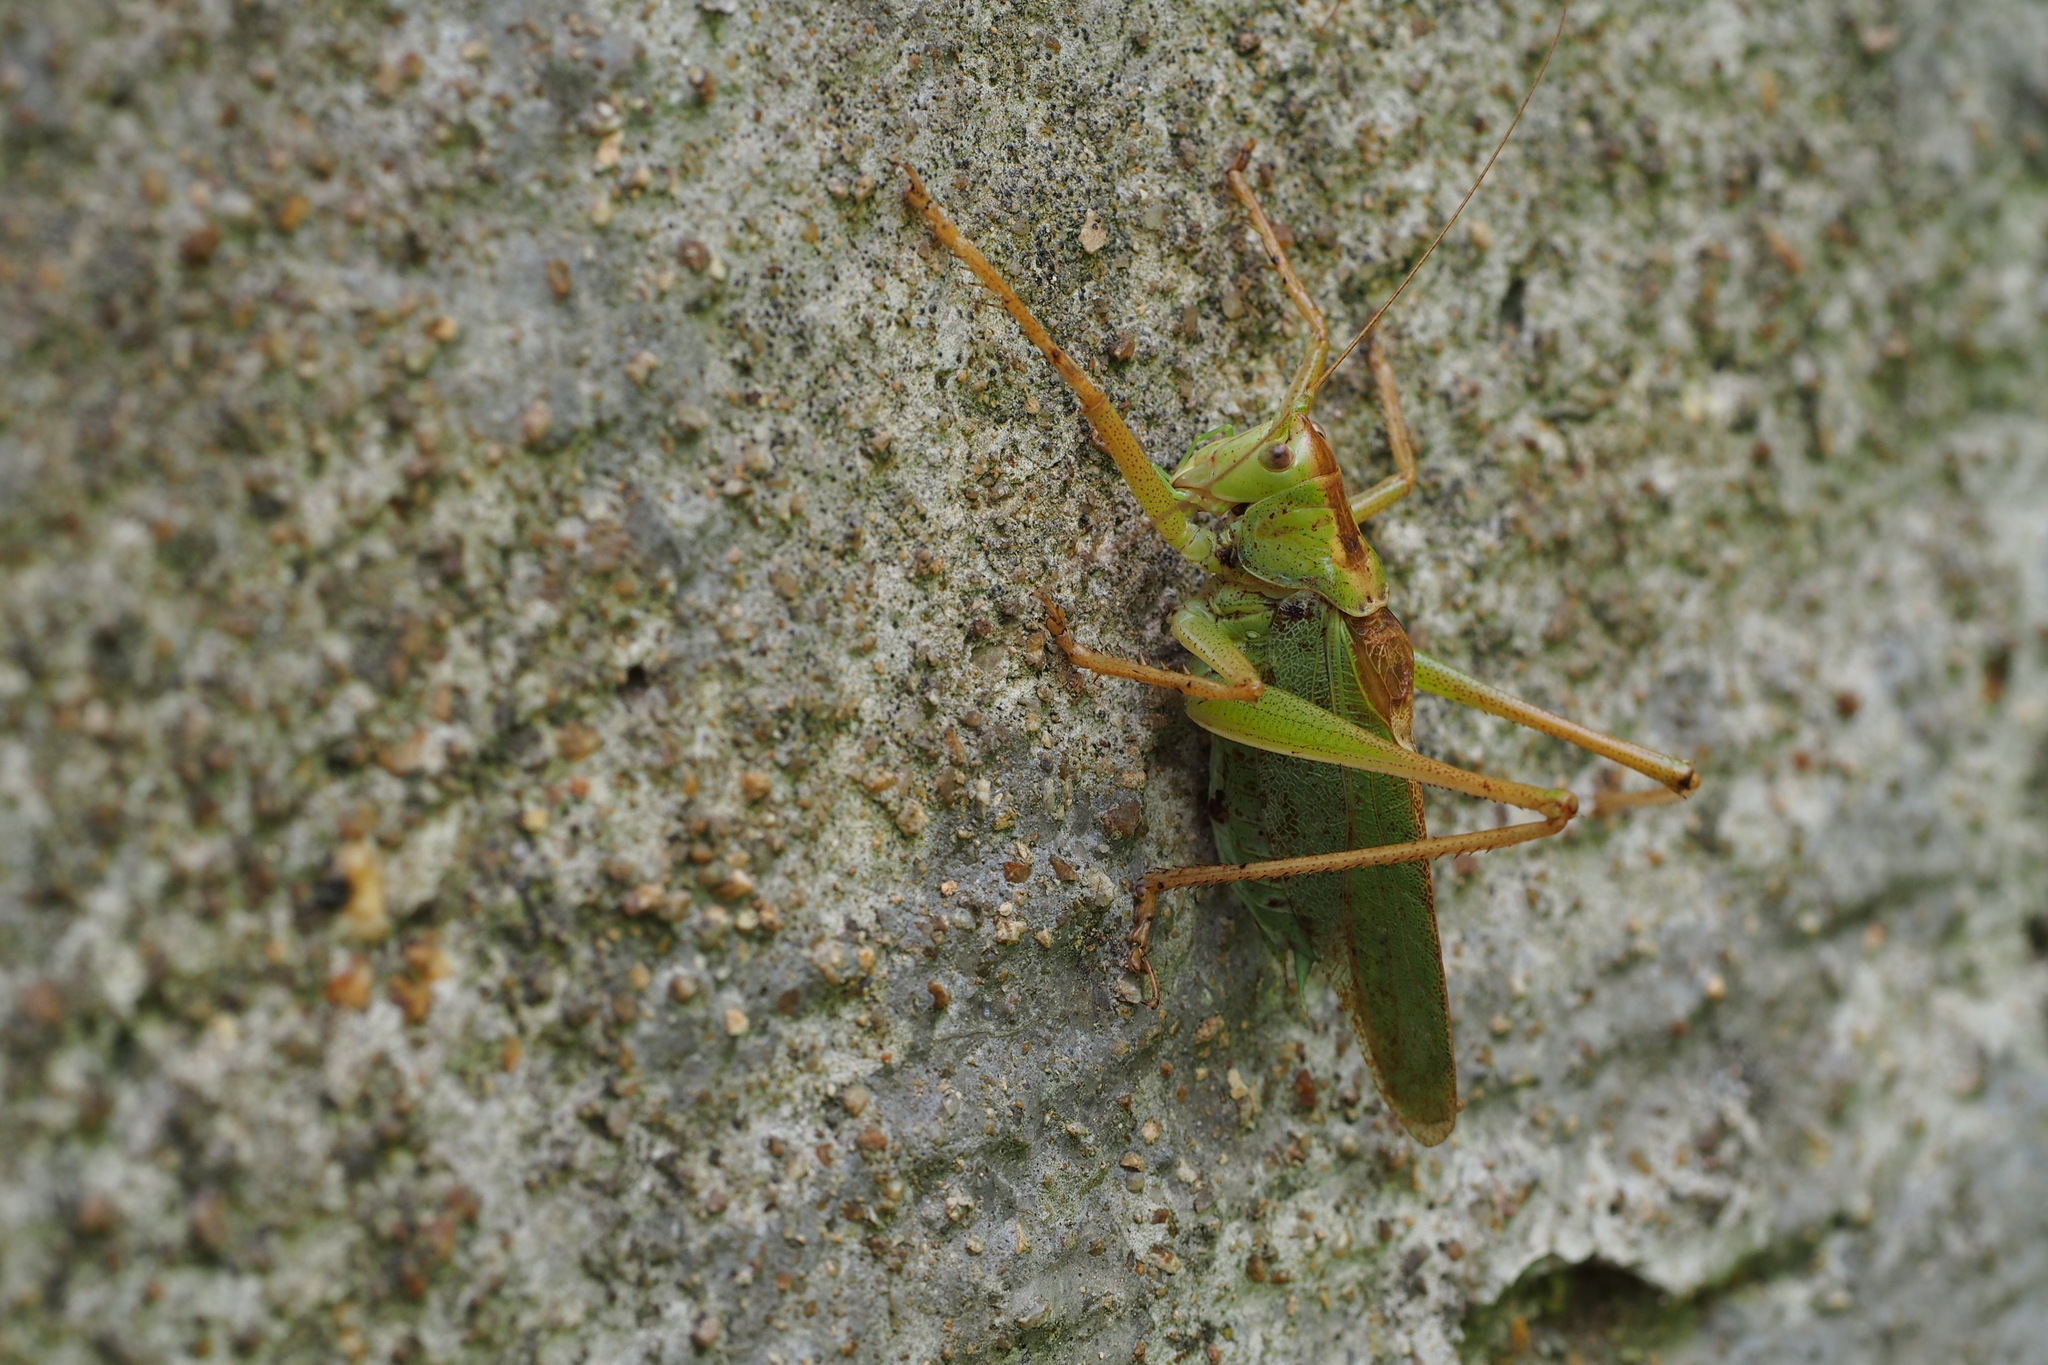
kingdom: Animalia
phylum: Arthropoda
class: Insecta
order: Orthoptera
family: Tettigoniidae
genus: Tettigonia
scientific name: Tettigonia orientalis
